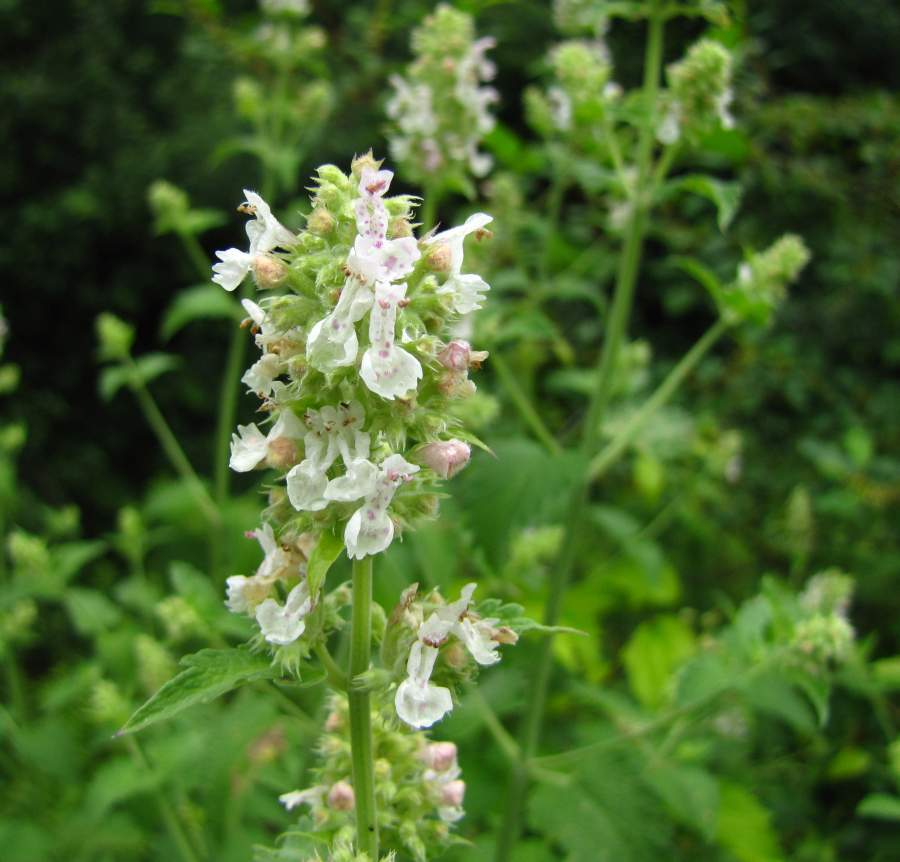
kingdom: Plantae
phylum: Tracheophyta
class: Magnoliopsida
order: Lamiales
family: Lamiaceae
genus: Nepeta
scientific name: Nepeta cataria
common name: Catnip
